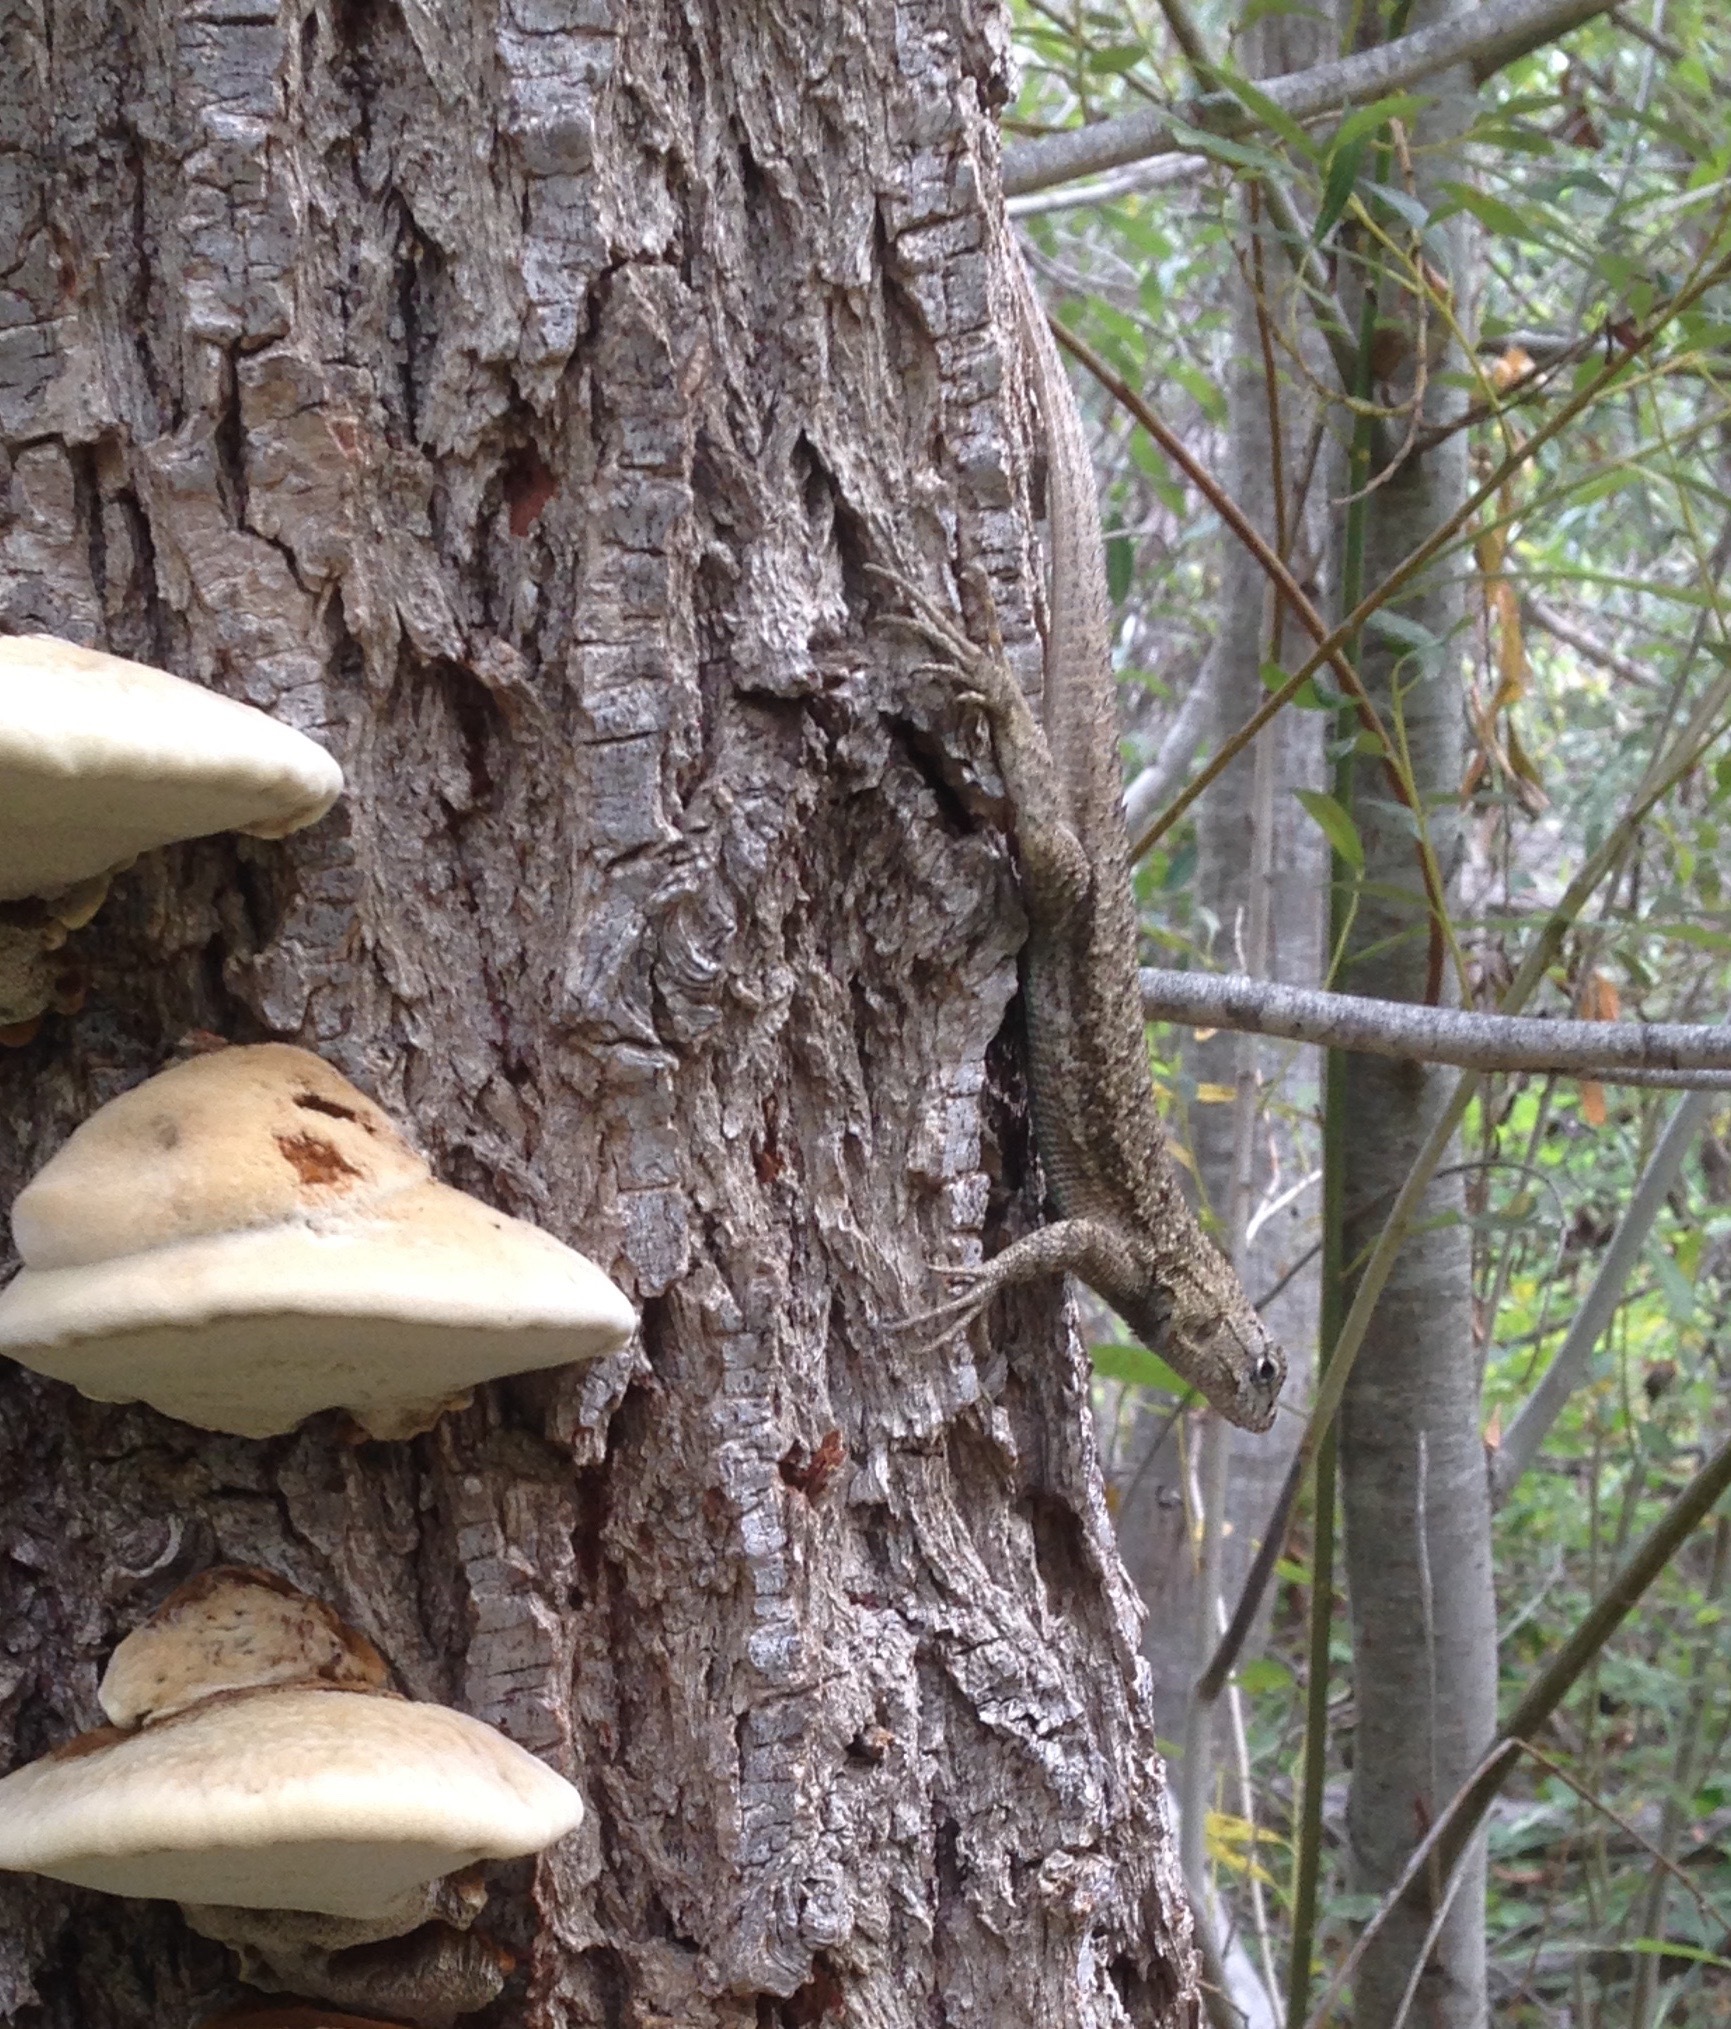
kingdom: Animalia
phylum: Chordata
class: Squamata
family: Phrynosomatidae
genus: Sceloporus
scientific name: Sceloporus occidentalis
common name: Western fence lizard
